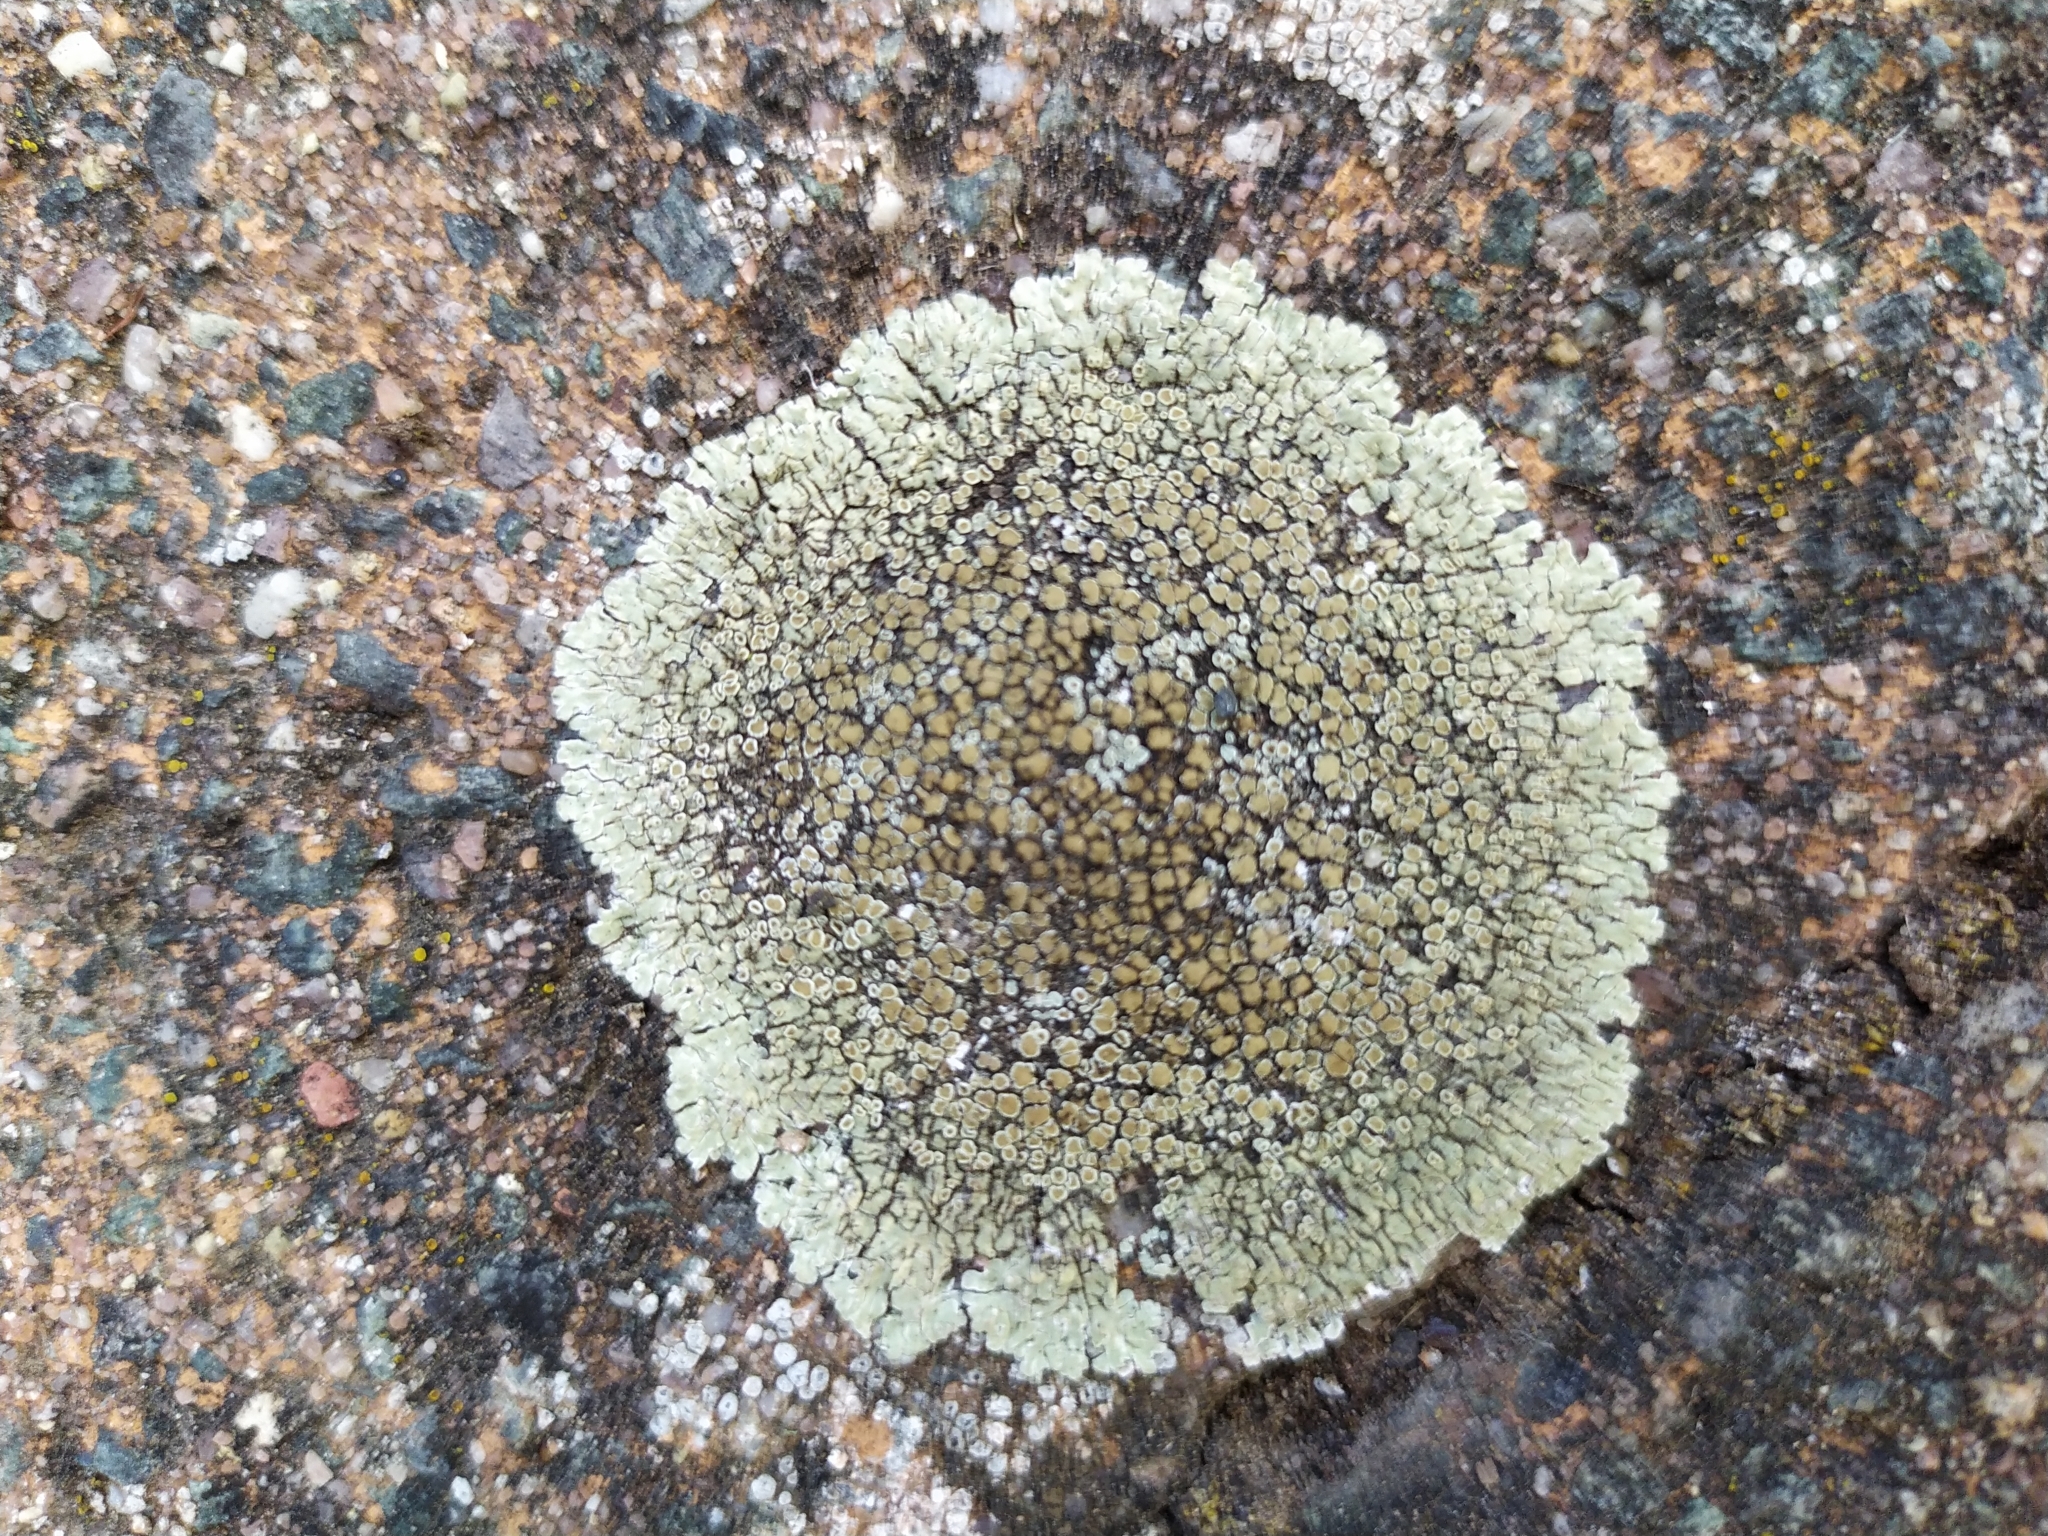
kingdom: Fungi
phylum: Ascomycota
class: Lecanoromycetes
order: Lecanorales
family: Lecanoraceae
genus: Protoparmeliopsis
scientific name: Protoparmeliopsis muralis
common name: Stonewall rim lichen
